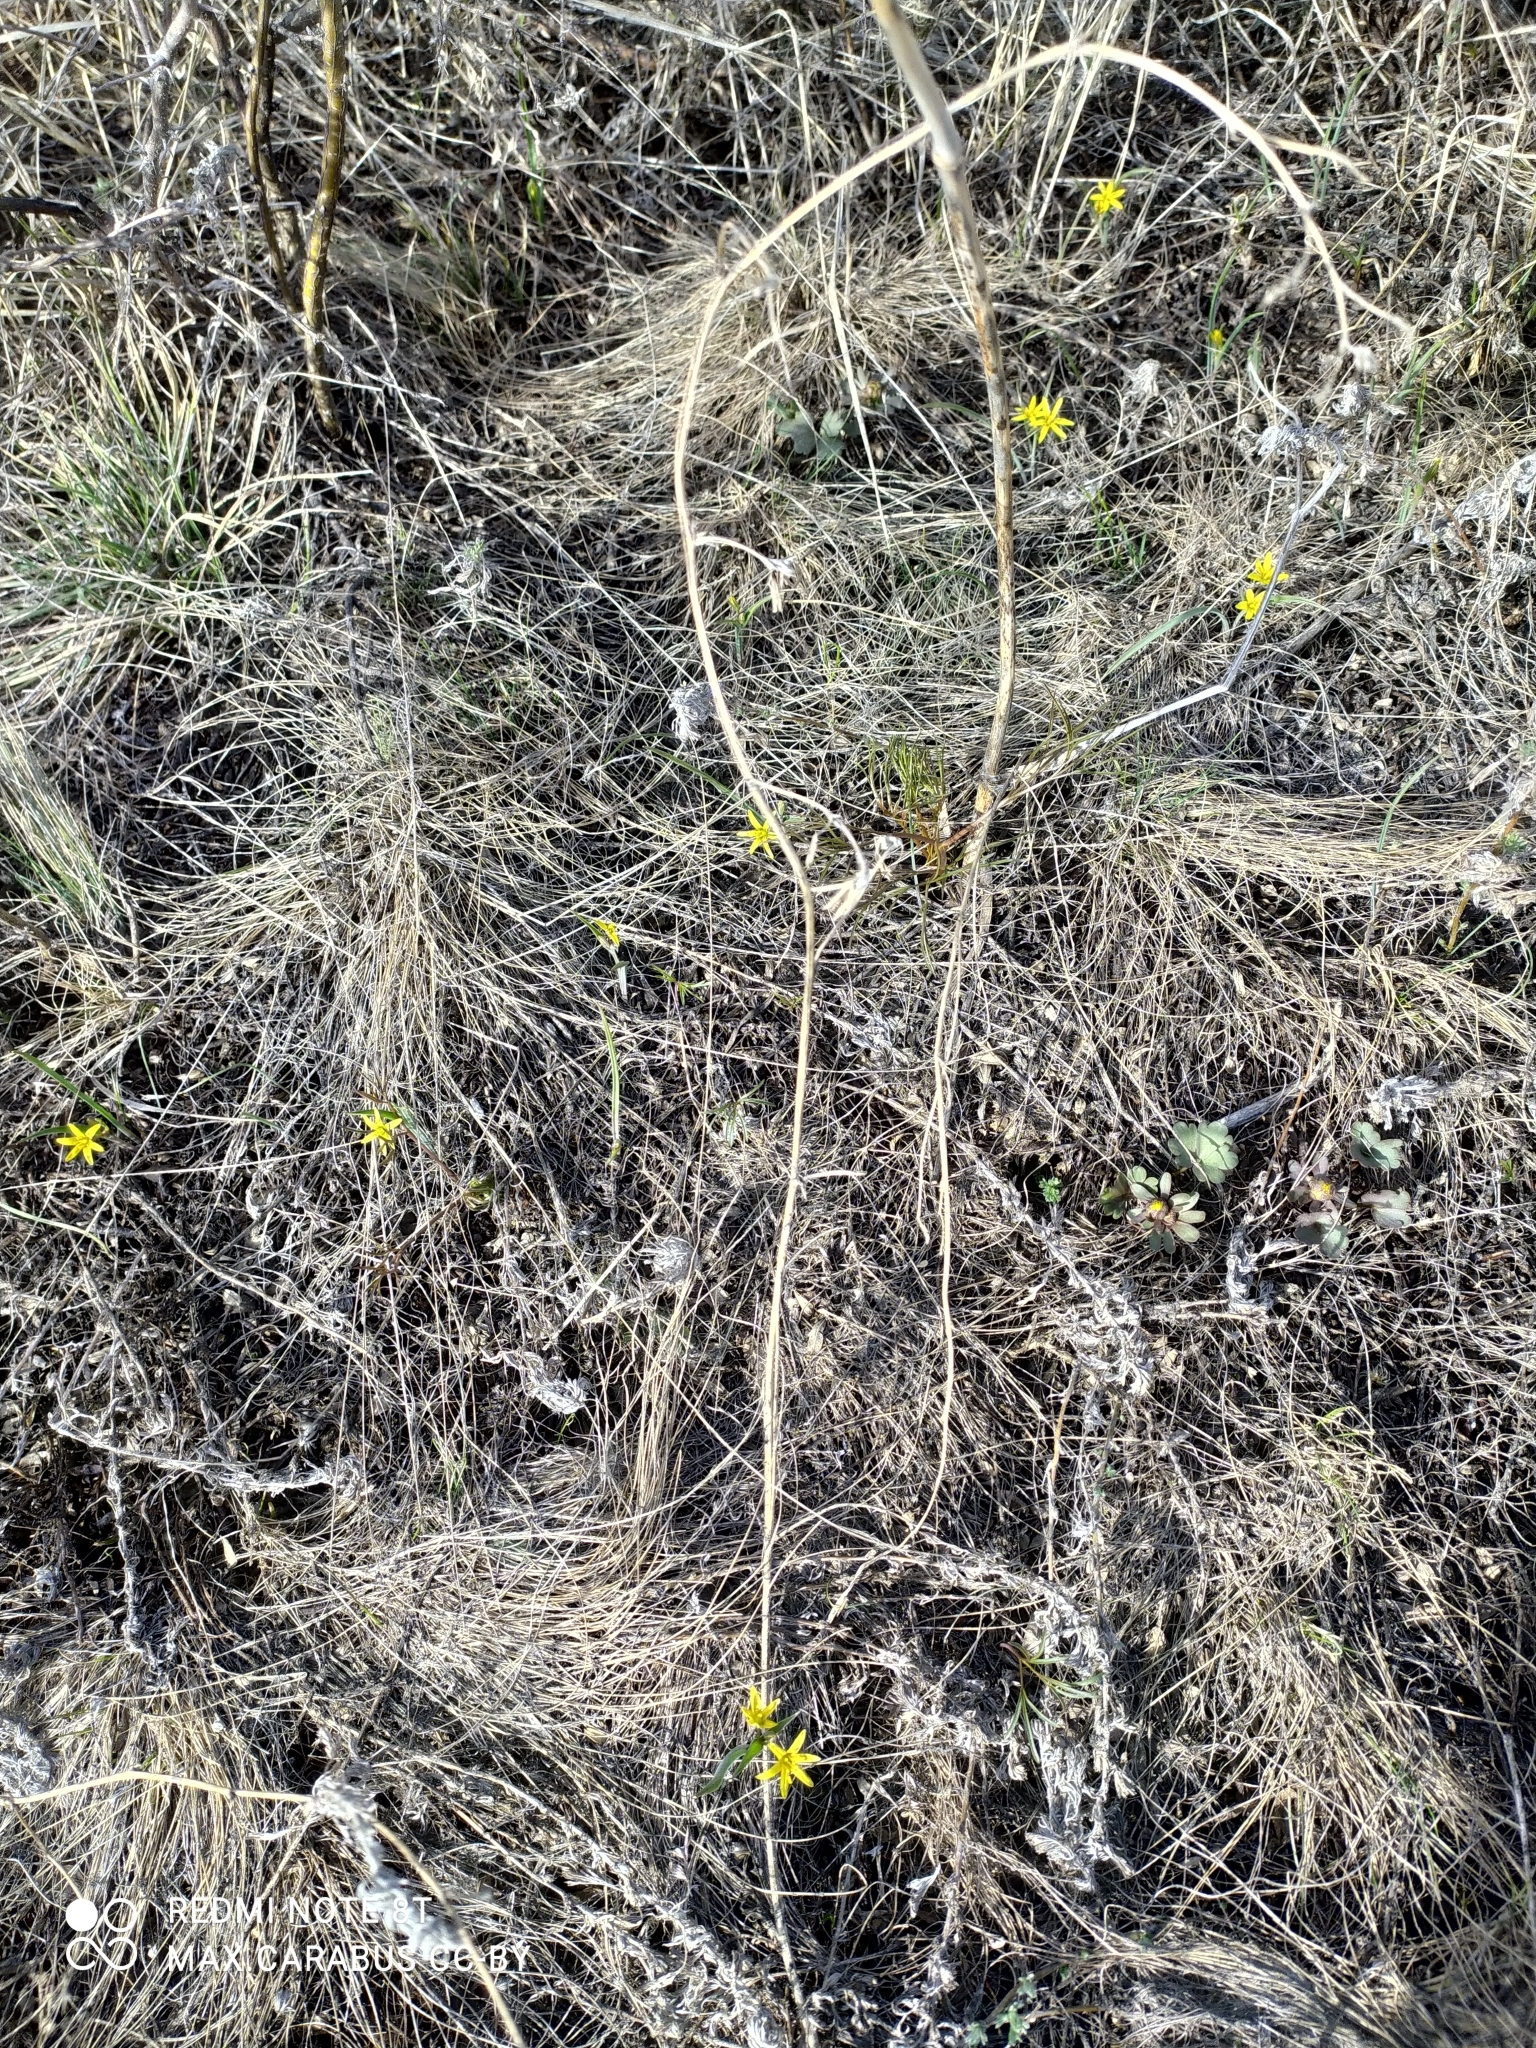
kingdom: Plantae
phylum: Tracheophyta
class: Liliopsida
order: Liliales
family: Liliaceae
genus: Gagea
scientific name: Gagea capusii
